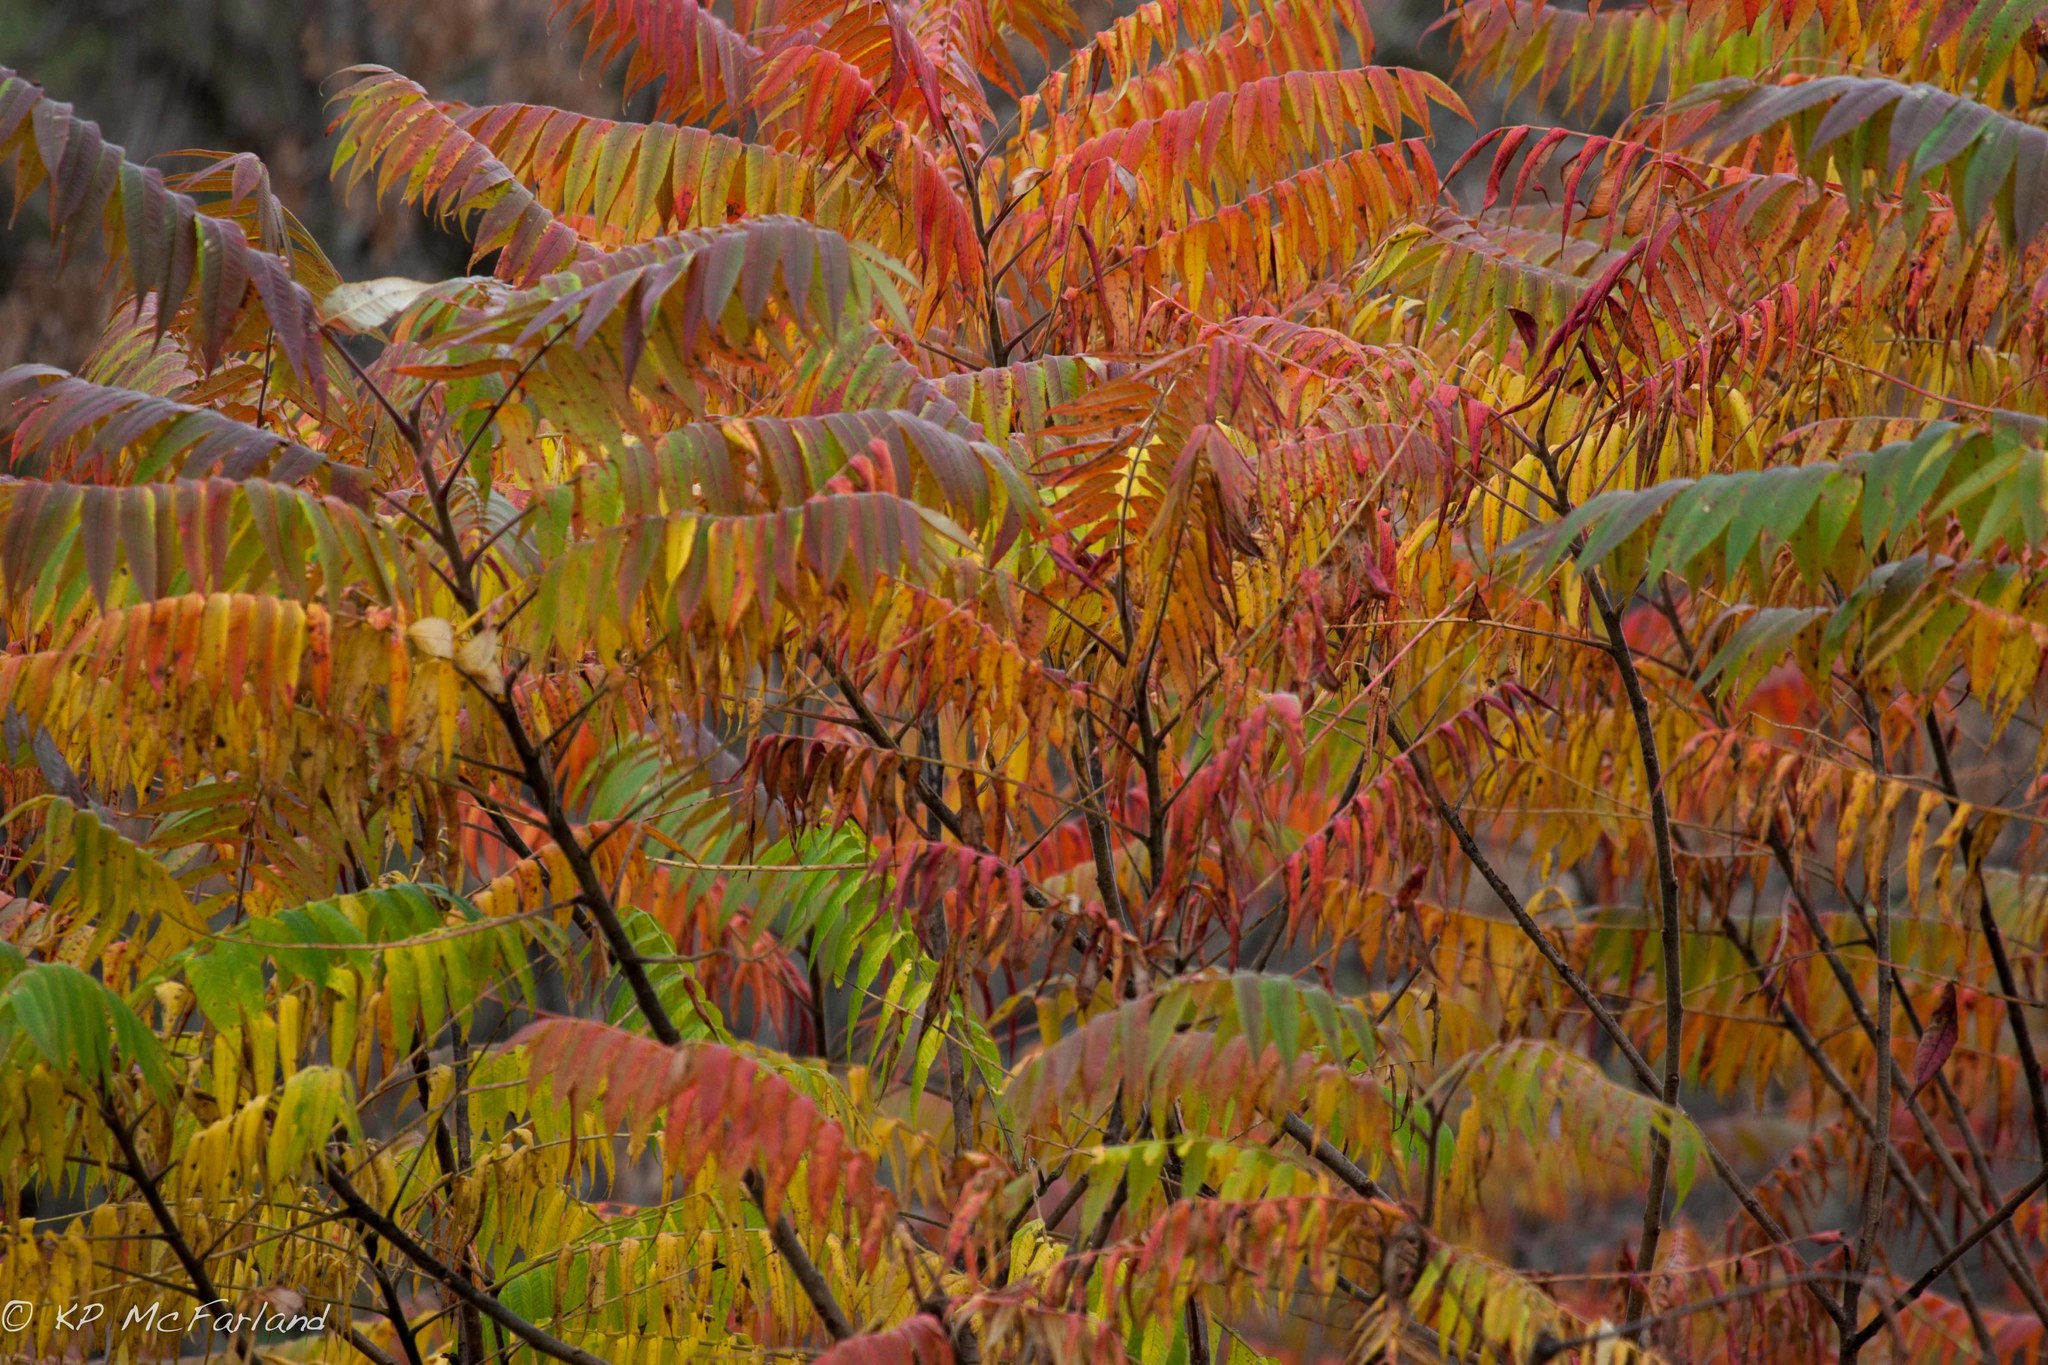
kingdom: Plantae
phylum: Tracheophyta
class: Magnoliopsida
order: Sapindales
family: Anacardiaceae
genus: Rhus
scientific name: Rhus typhina
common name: Staghorn sumac
